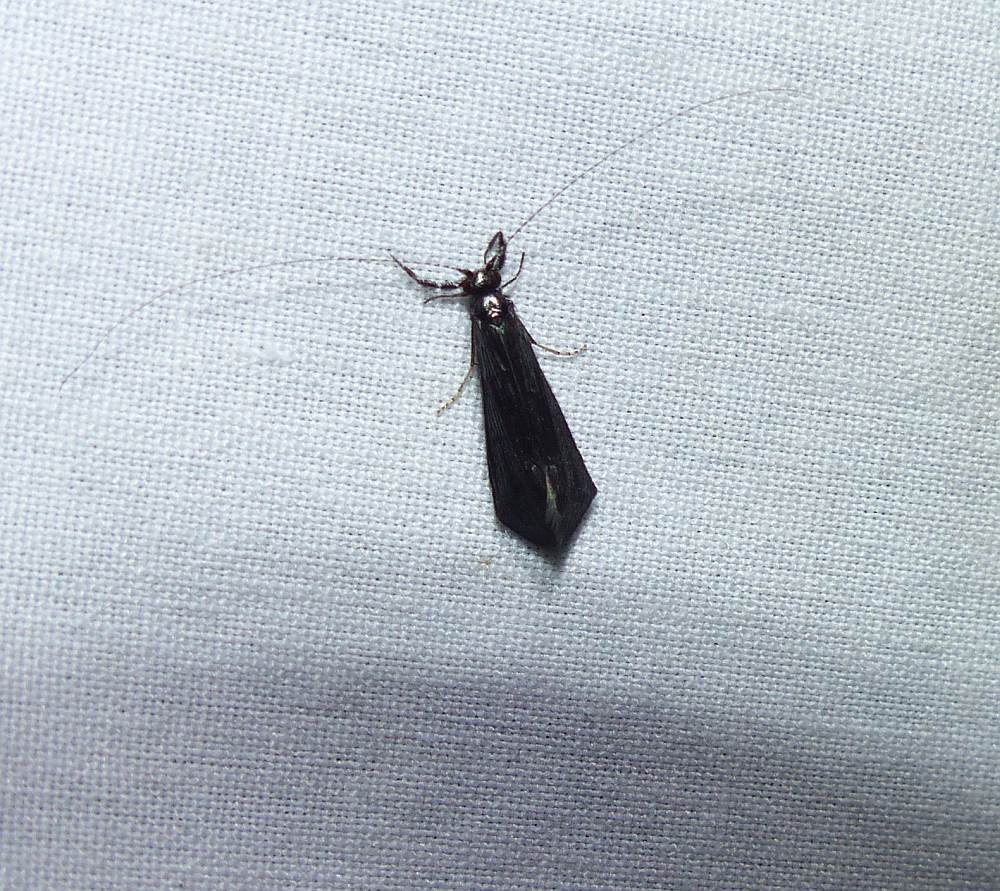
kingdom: Animalia
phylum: Arthropoda
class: Insecta
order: Trichoptera
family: Leptoceridae
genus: Mystacides
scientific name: Mystacides sepulchralis
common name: Black dancer caddisfly
